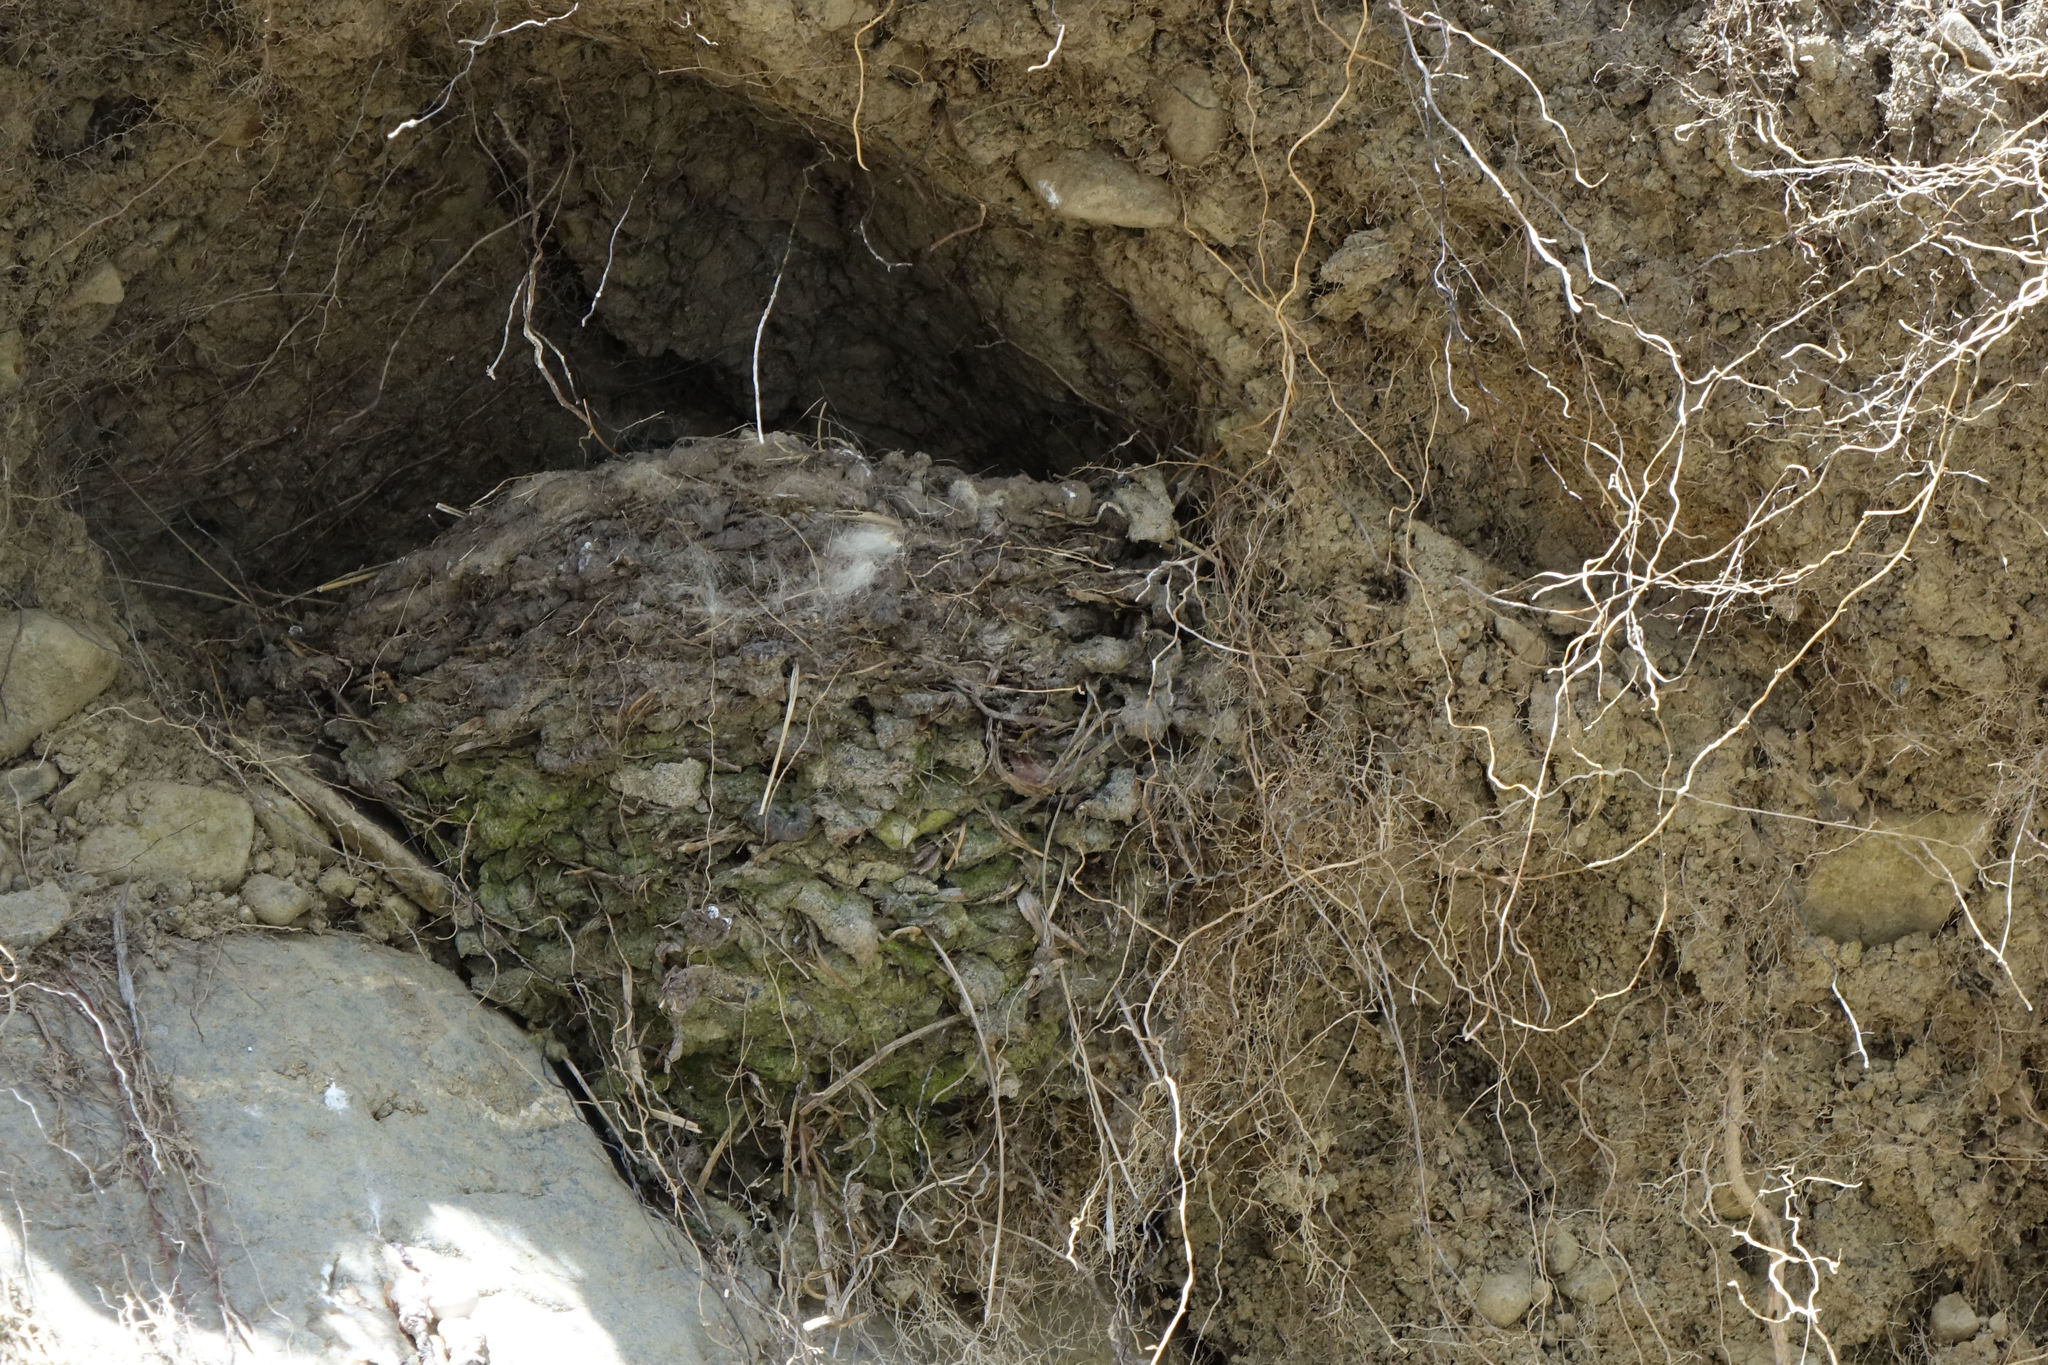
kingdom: Animalia
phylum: Chordata
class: Aves
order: Passeriformes
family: Hirundinidae
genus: Hirundo
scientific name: Hirundo neoxena
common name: Welcome swallow
